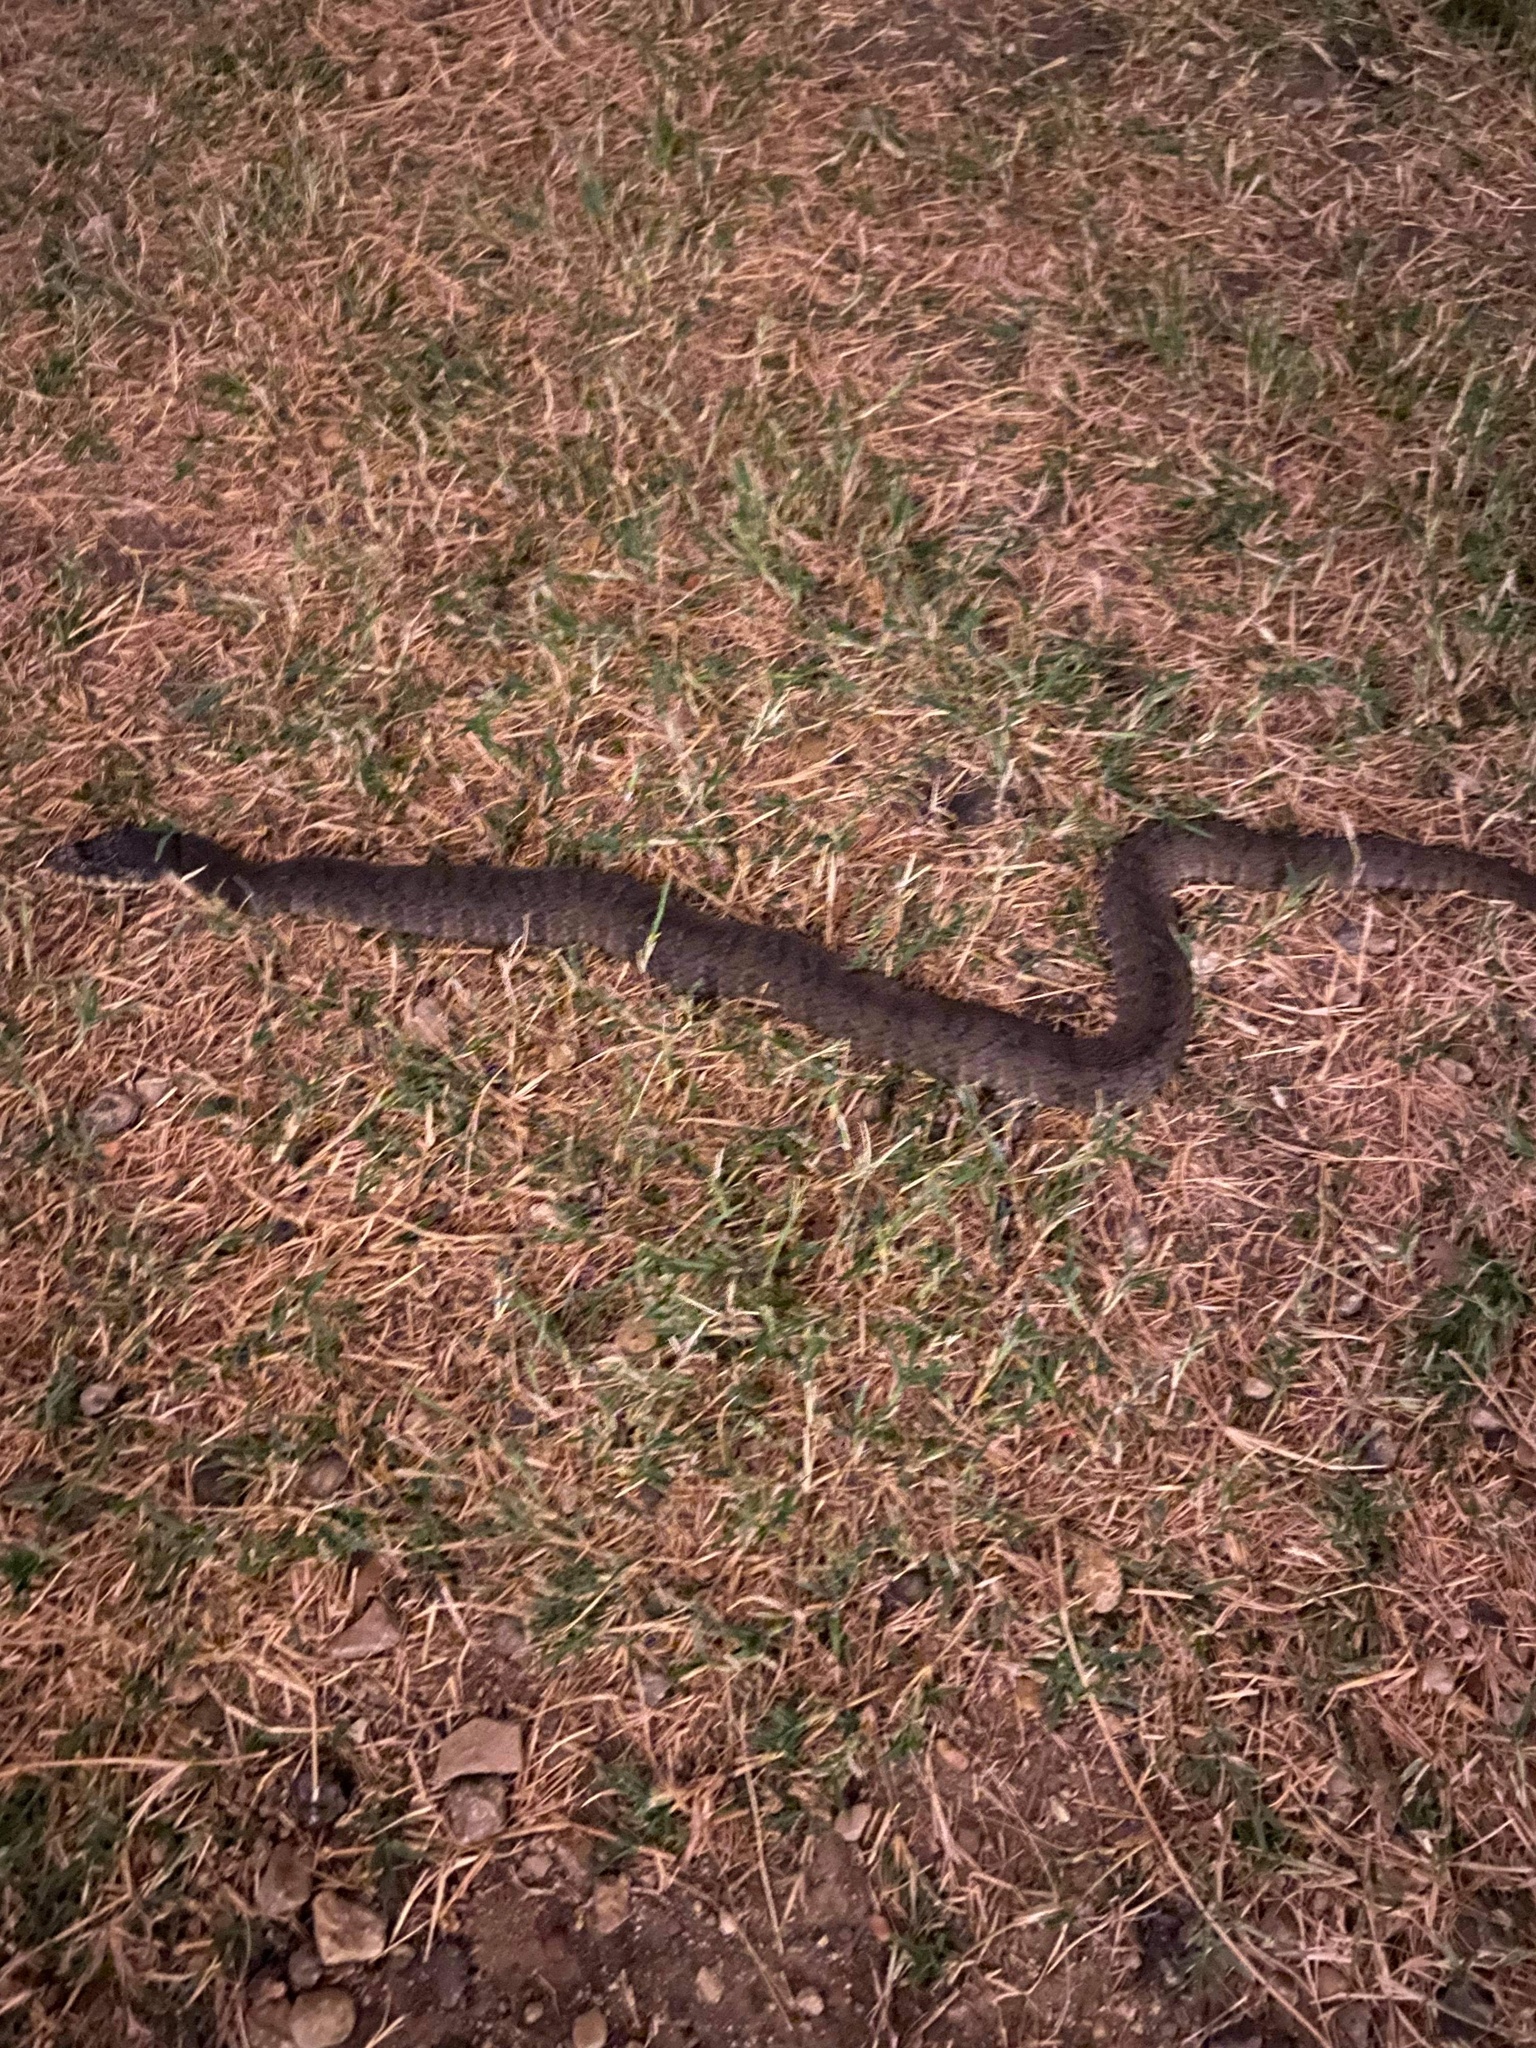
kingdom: Animalia
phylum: Chordata
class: Squamata
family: Colubridae
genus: Nerodia
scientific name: Nerodia erythrogaster
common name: Plainbelly water snake
